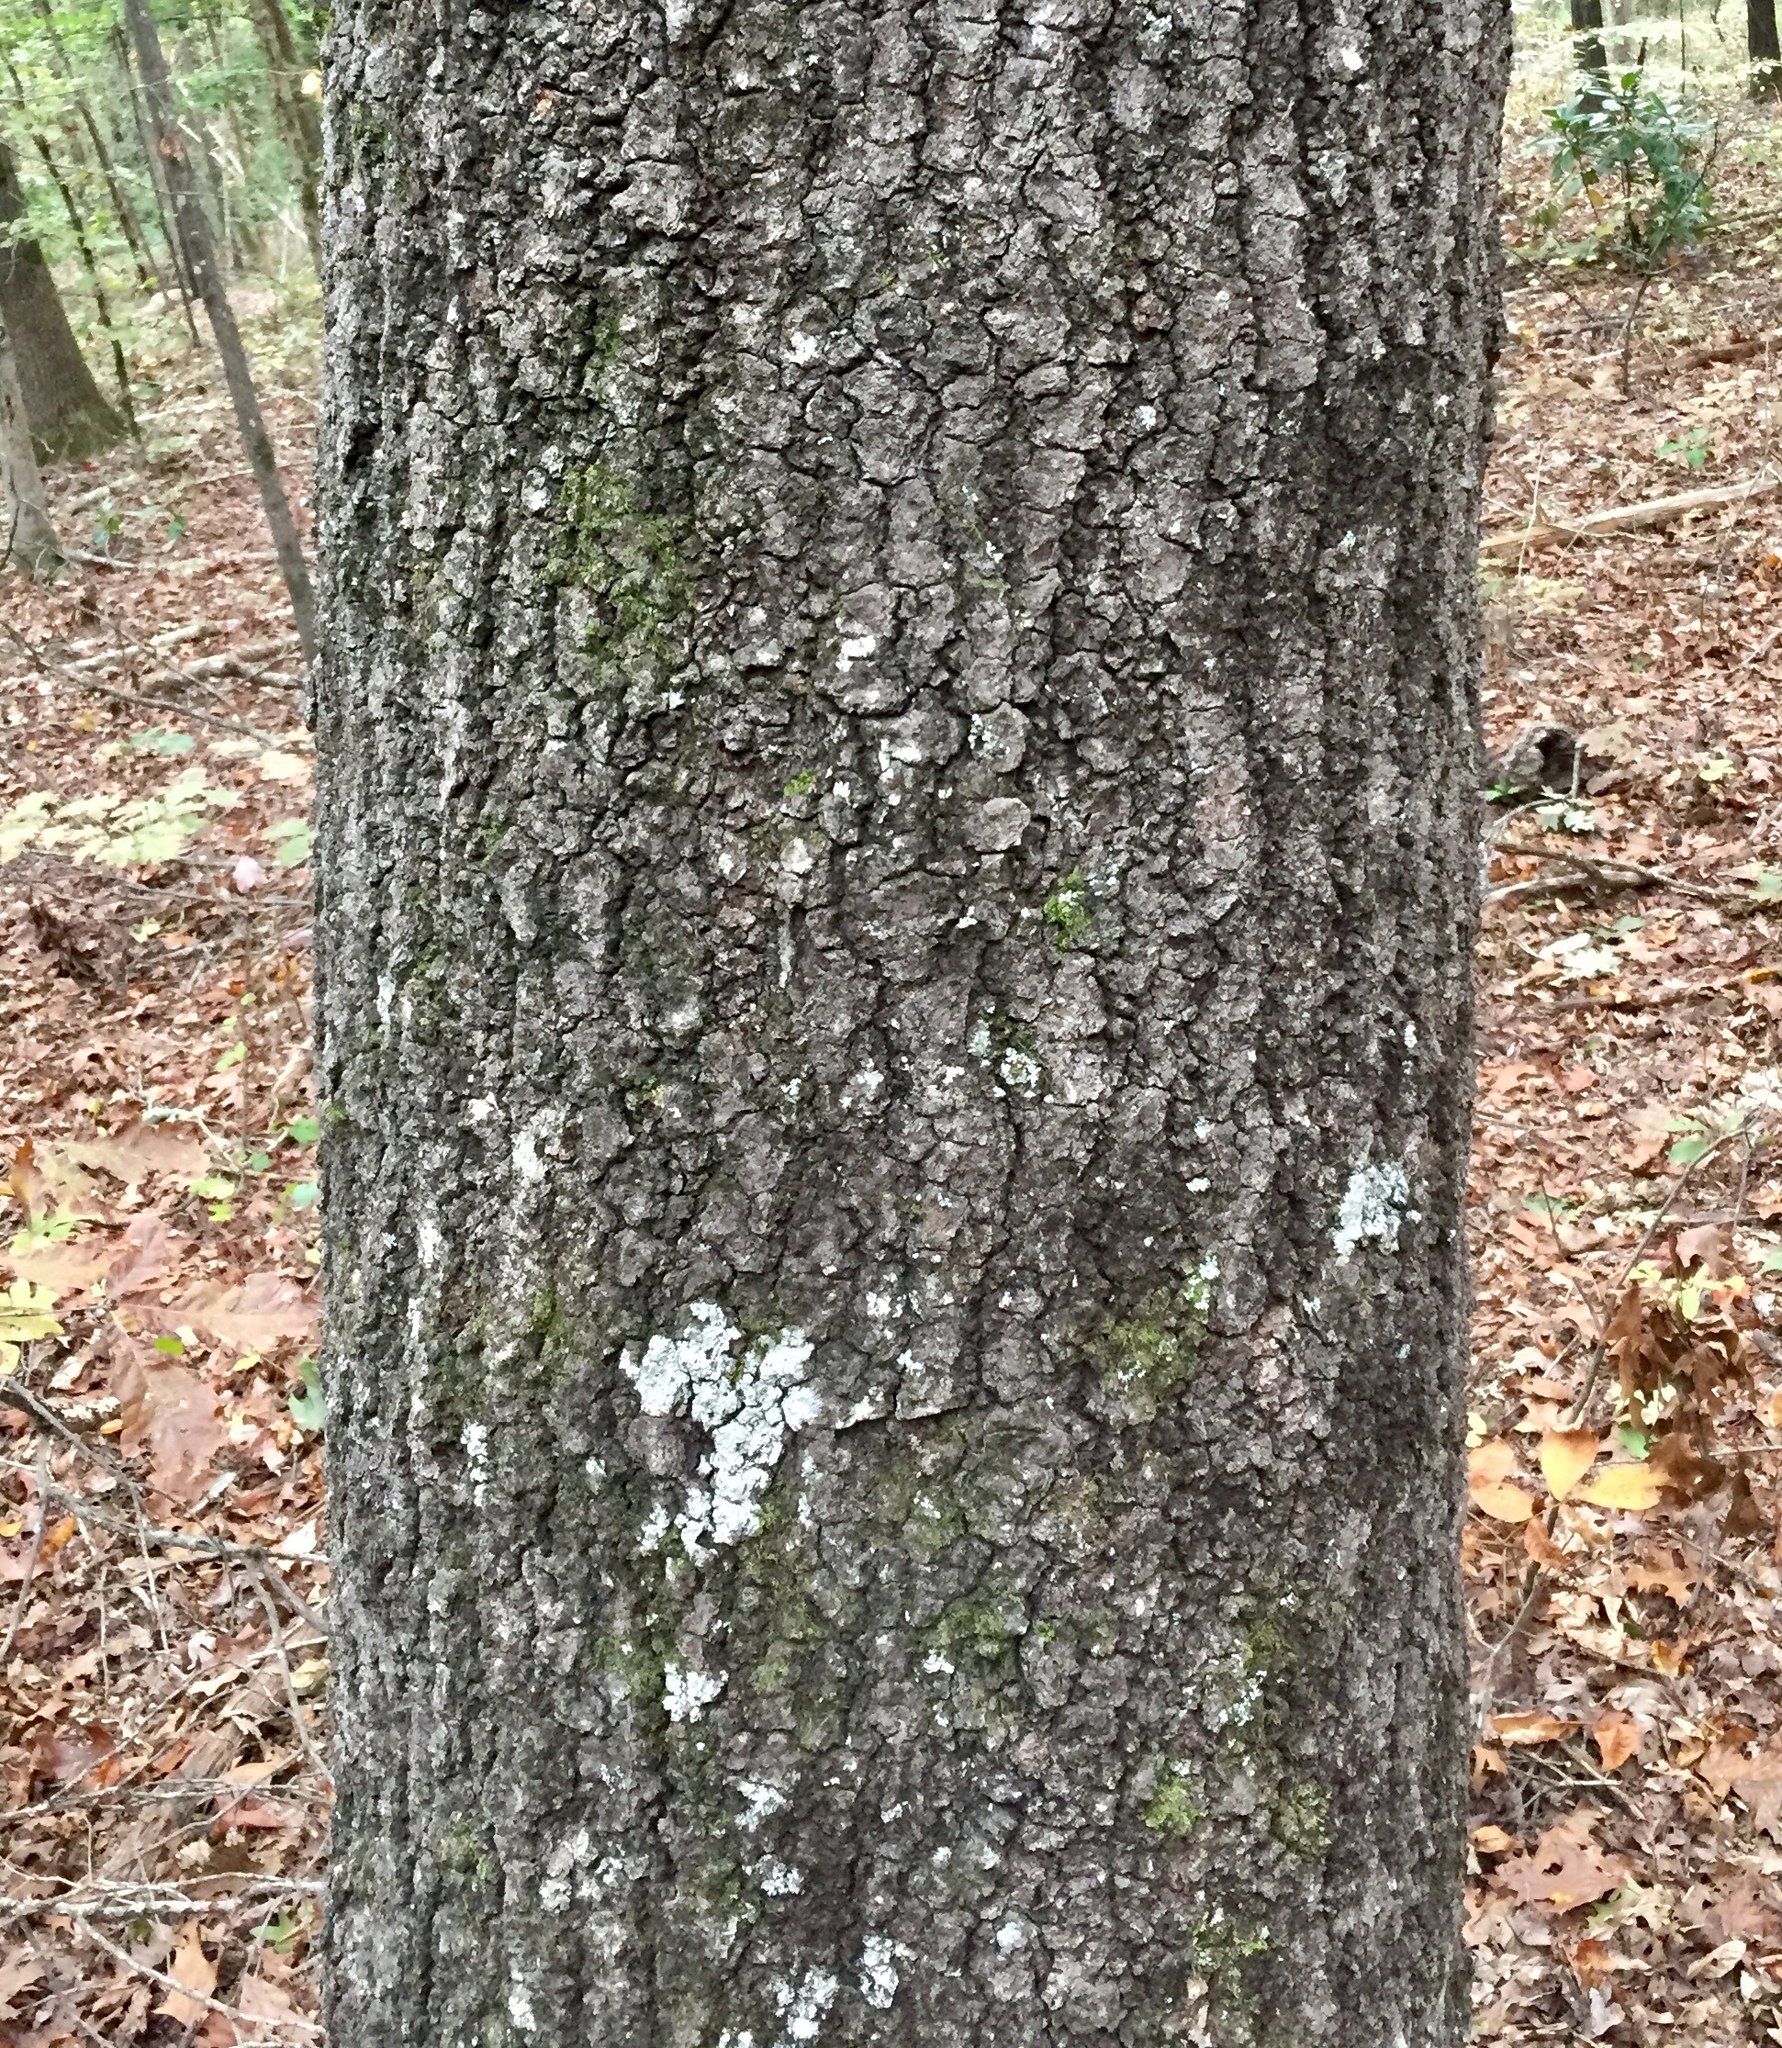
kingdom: Plantae
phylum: Tracheophyta
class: Magnoliopsida
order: Fagales
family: Fagaceae
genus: Quercus
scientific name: Quercus velutina
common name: Black oak
